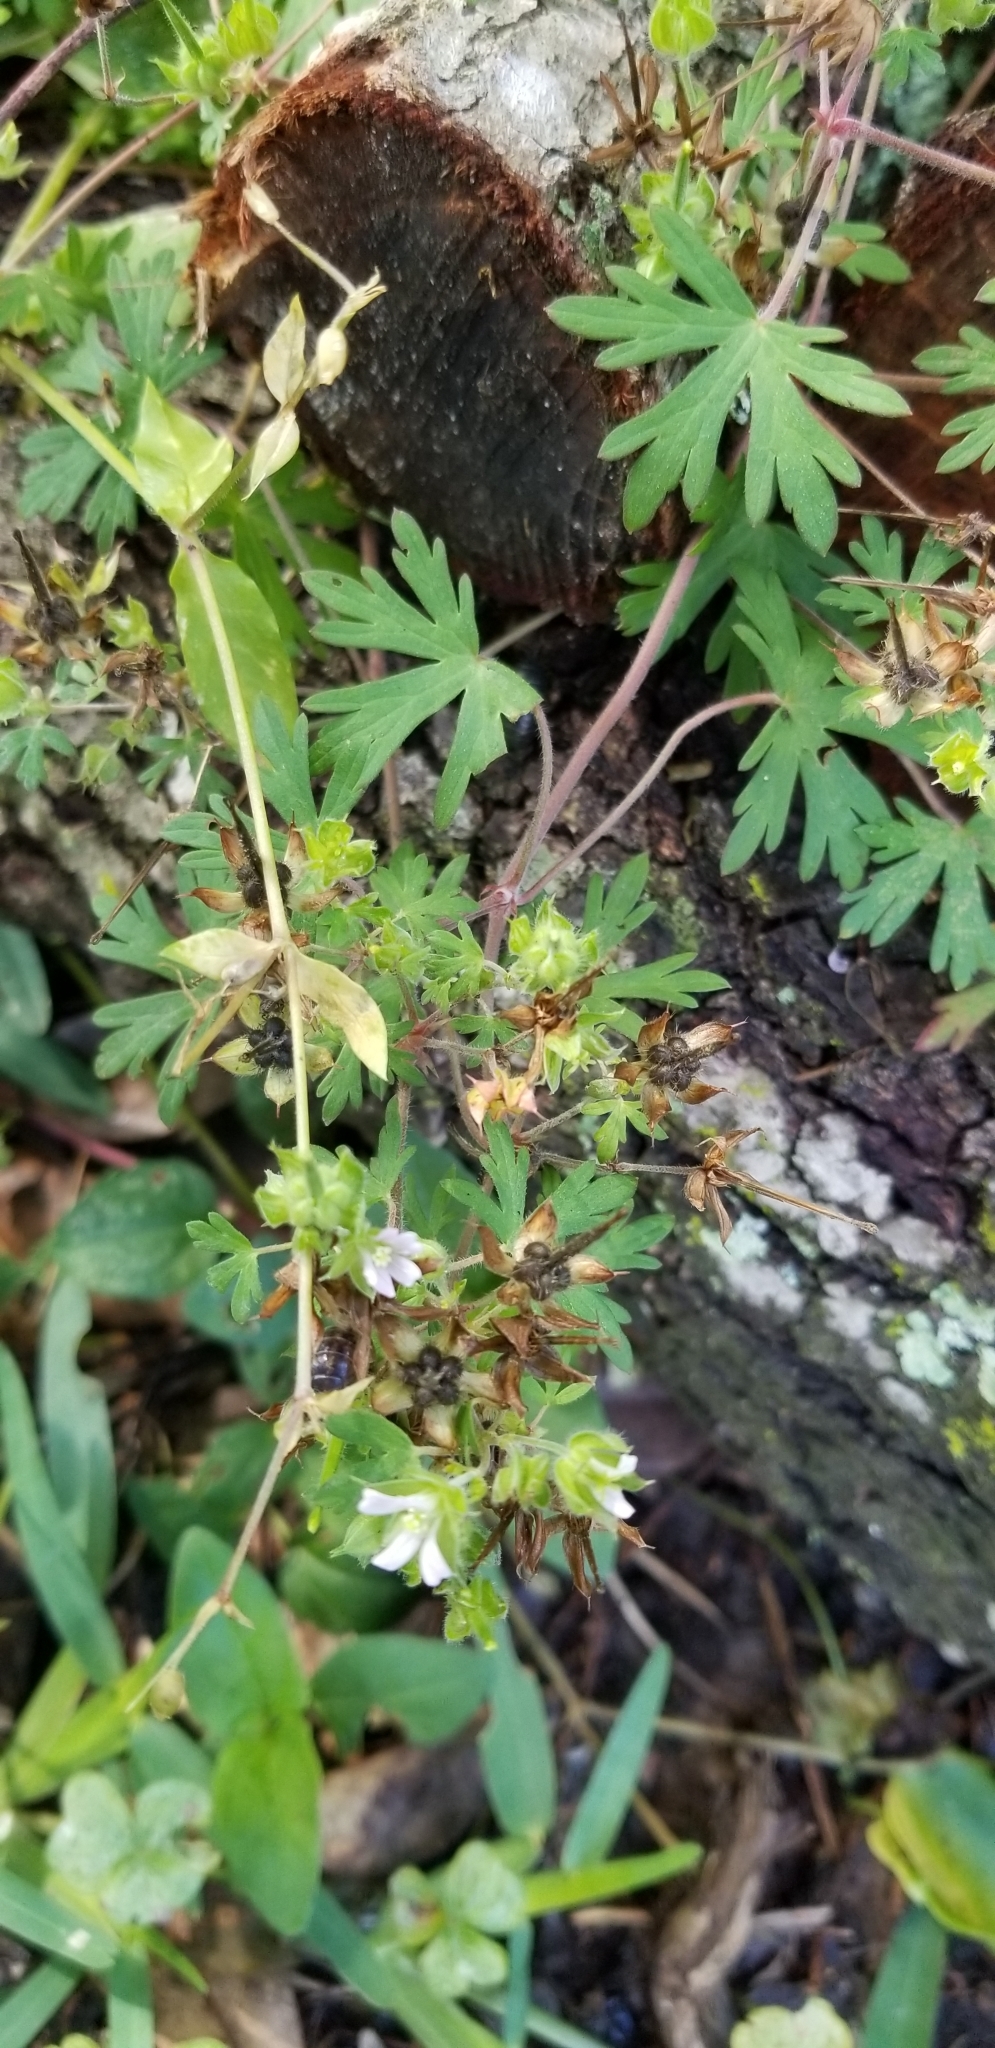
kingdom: Plantae
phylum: Tracheophyta
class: Magnoliopsida
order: Geraniales
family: Geraniaceae
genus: Geranium
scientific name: Geranium carolinianum
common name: Carolina crane's-bill
